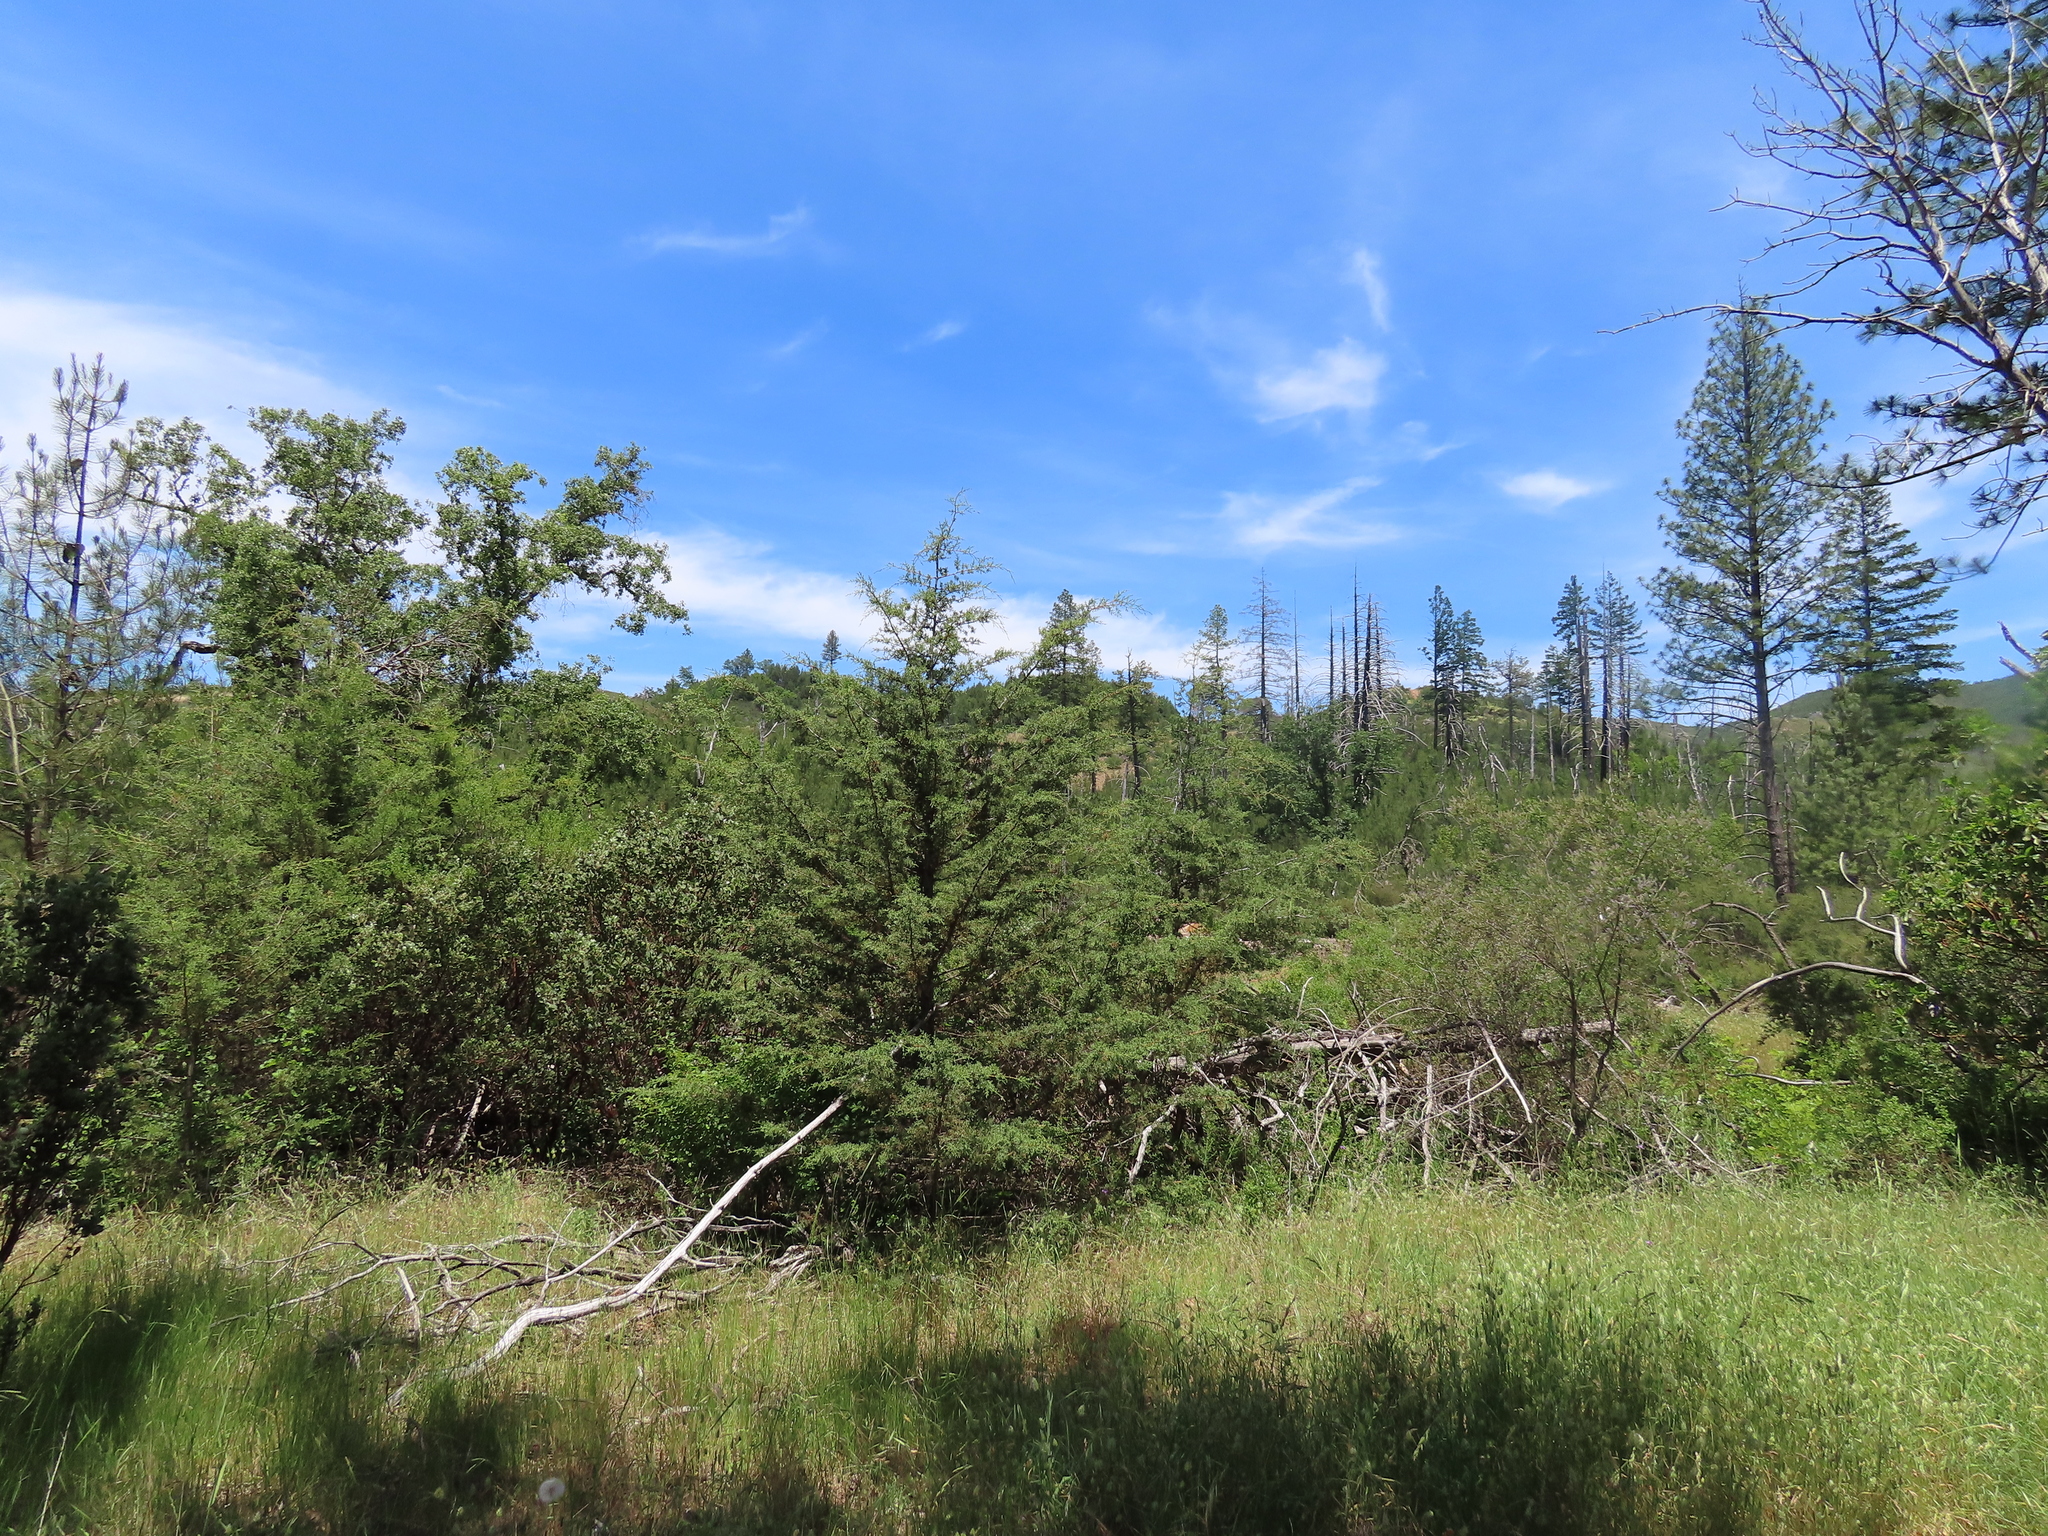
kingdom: Plantae
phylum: Tracheophyta
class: Pinopsida
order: Pinales
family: Cupressaceae
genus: Cupressus
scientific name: Cupressus sargentii
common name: Sargent cypress
